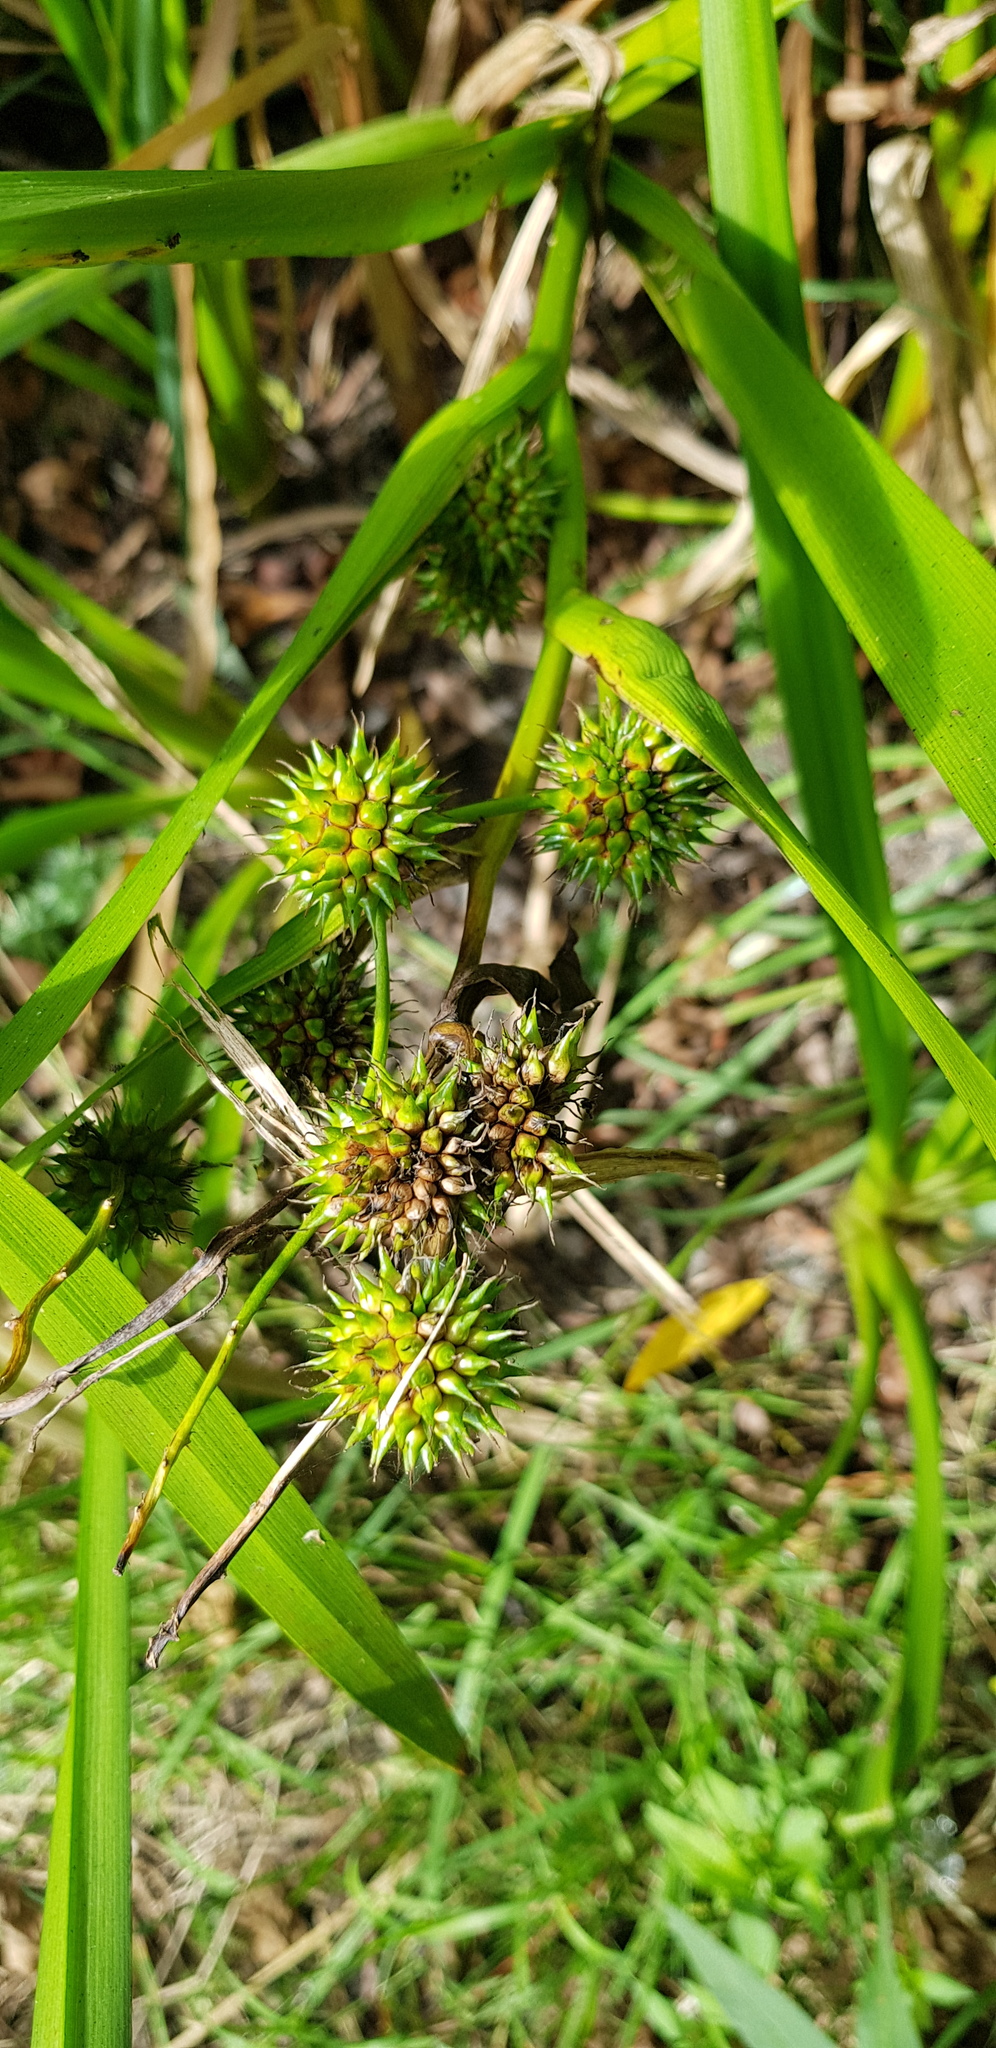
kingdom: Plantae
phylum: Tracheophyta
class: Liliopsida
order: Poales
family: Typhaceae
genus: Sparganium
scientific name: Sparganium erectum
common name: Branched bur-reed
